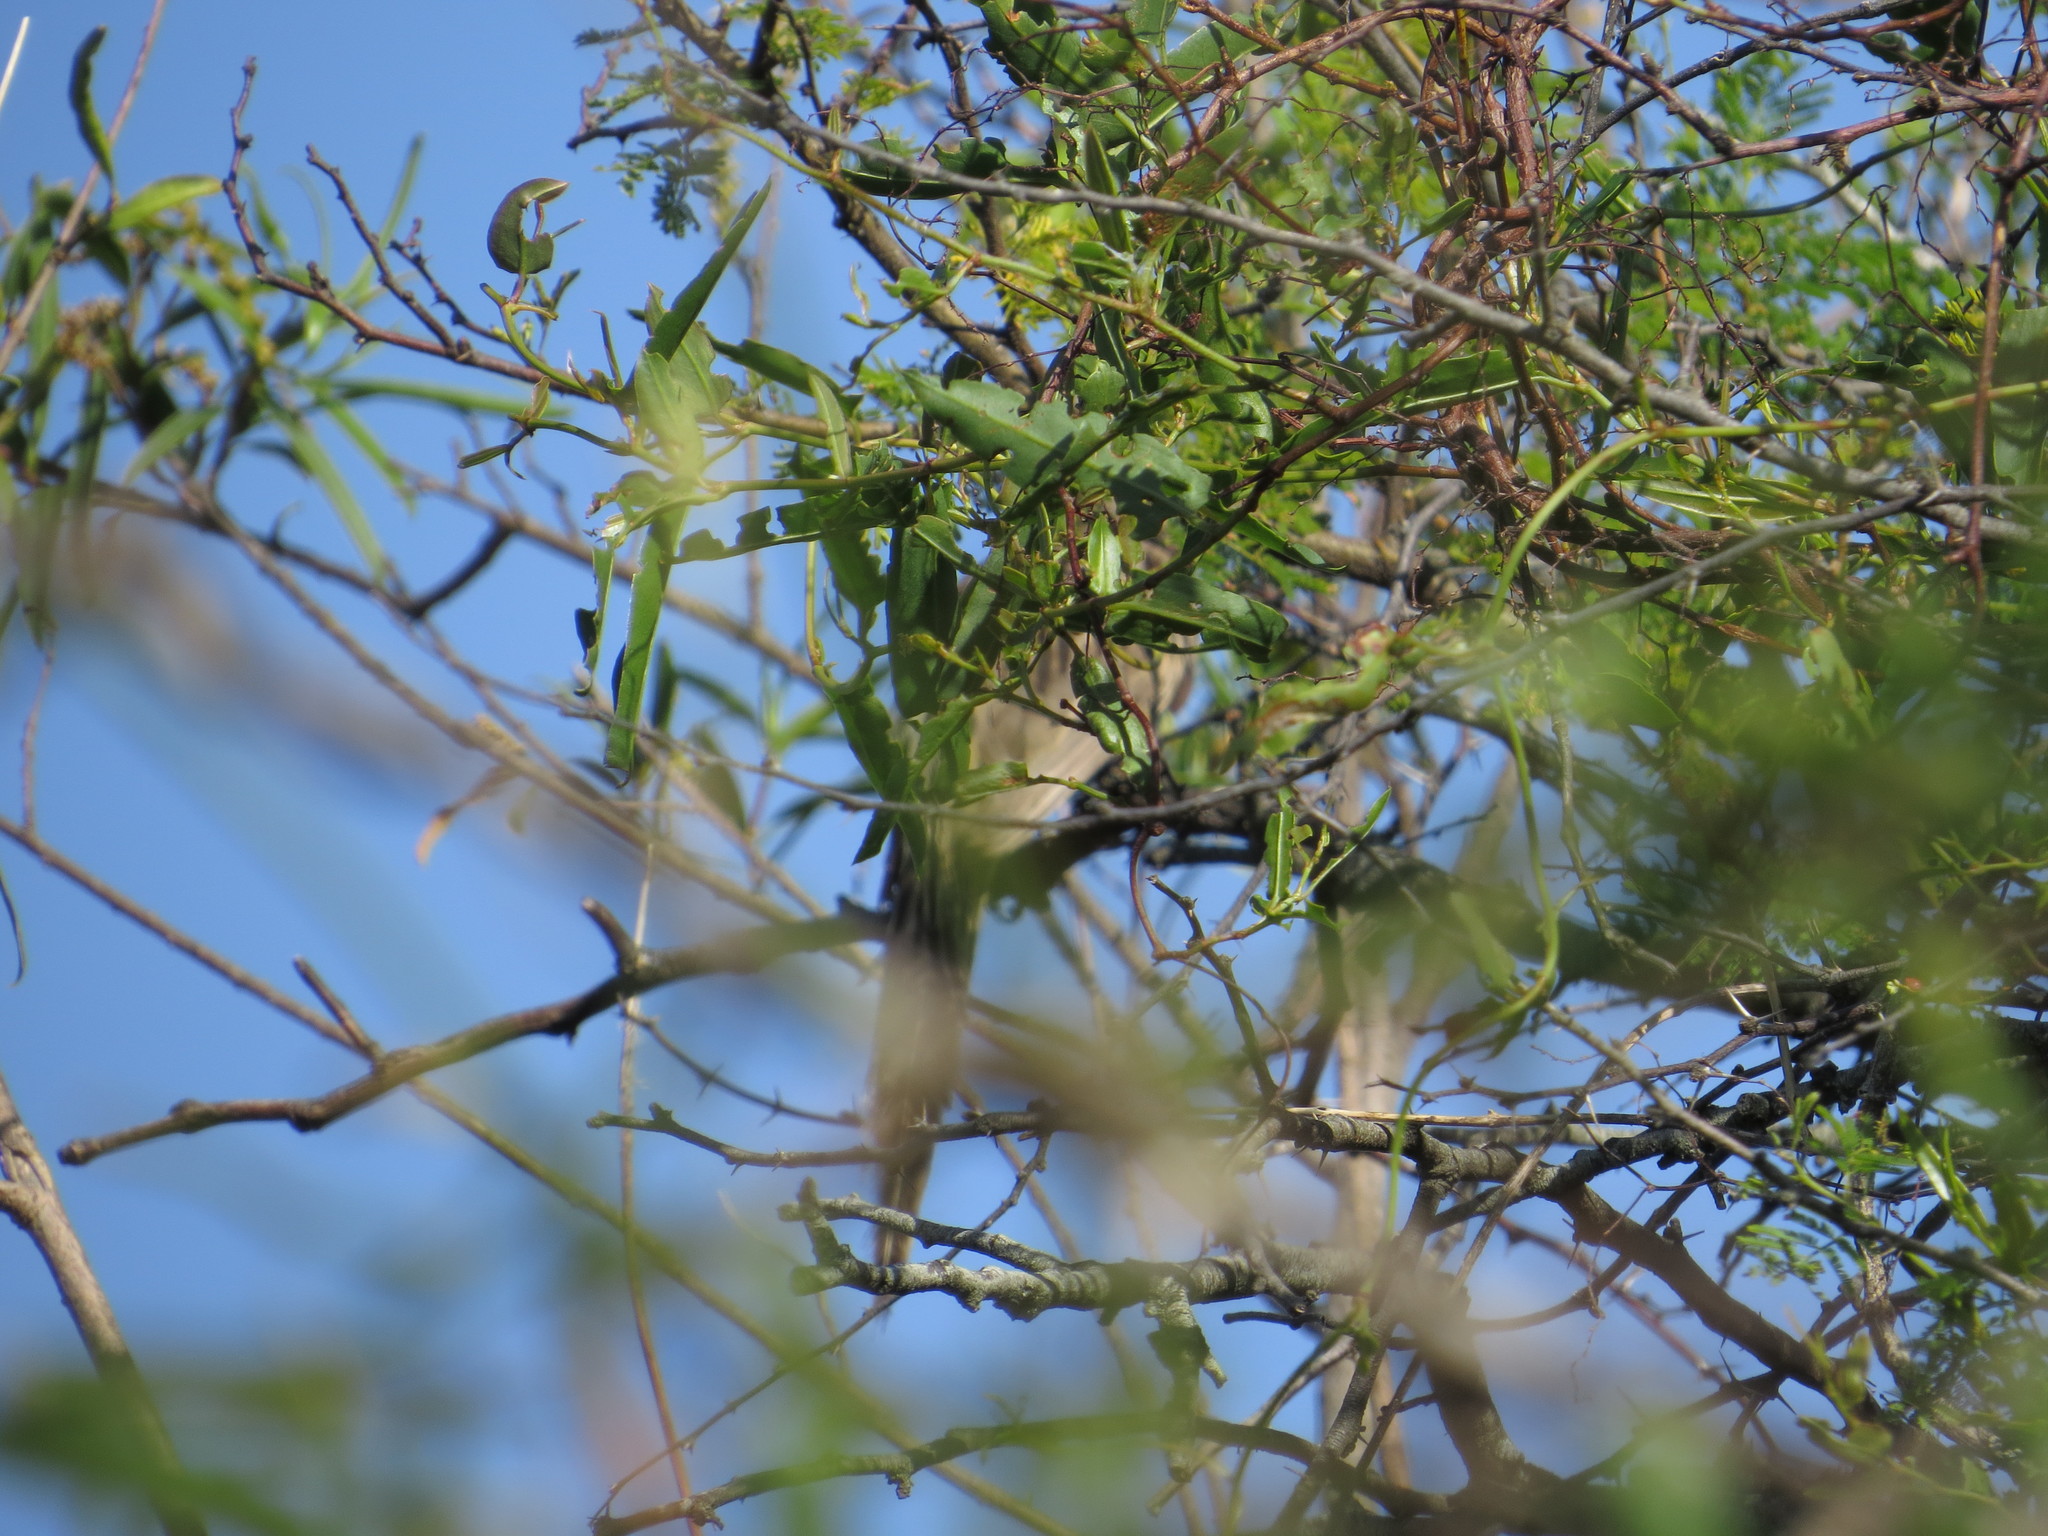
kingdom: Animalia
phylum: Chordata
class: Aves
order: Cuculiformes
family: Cuculidae
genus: Tapera
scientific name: Tapera naevia
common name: Striped cuckoo
